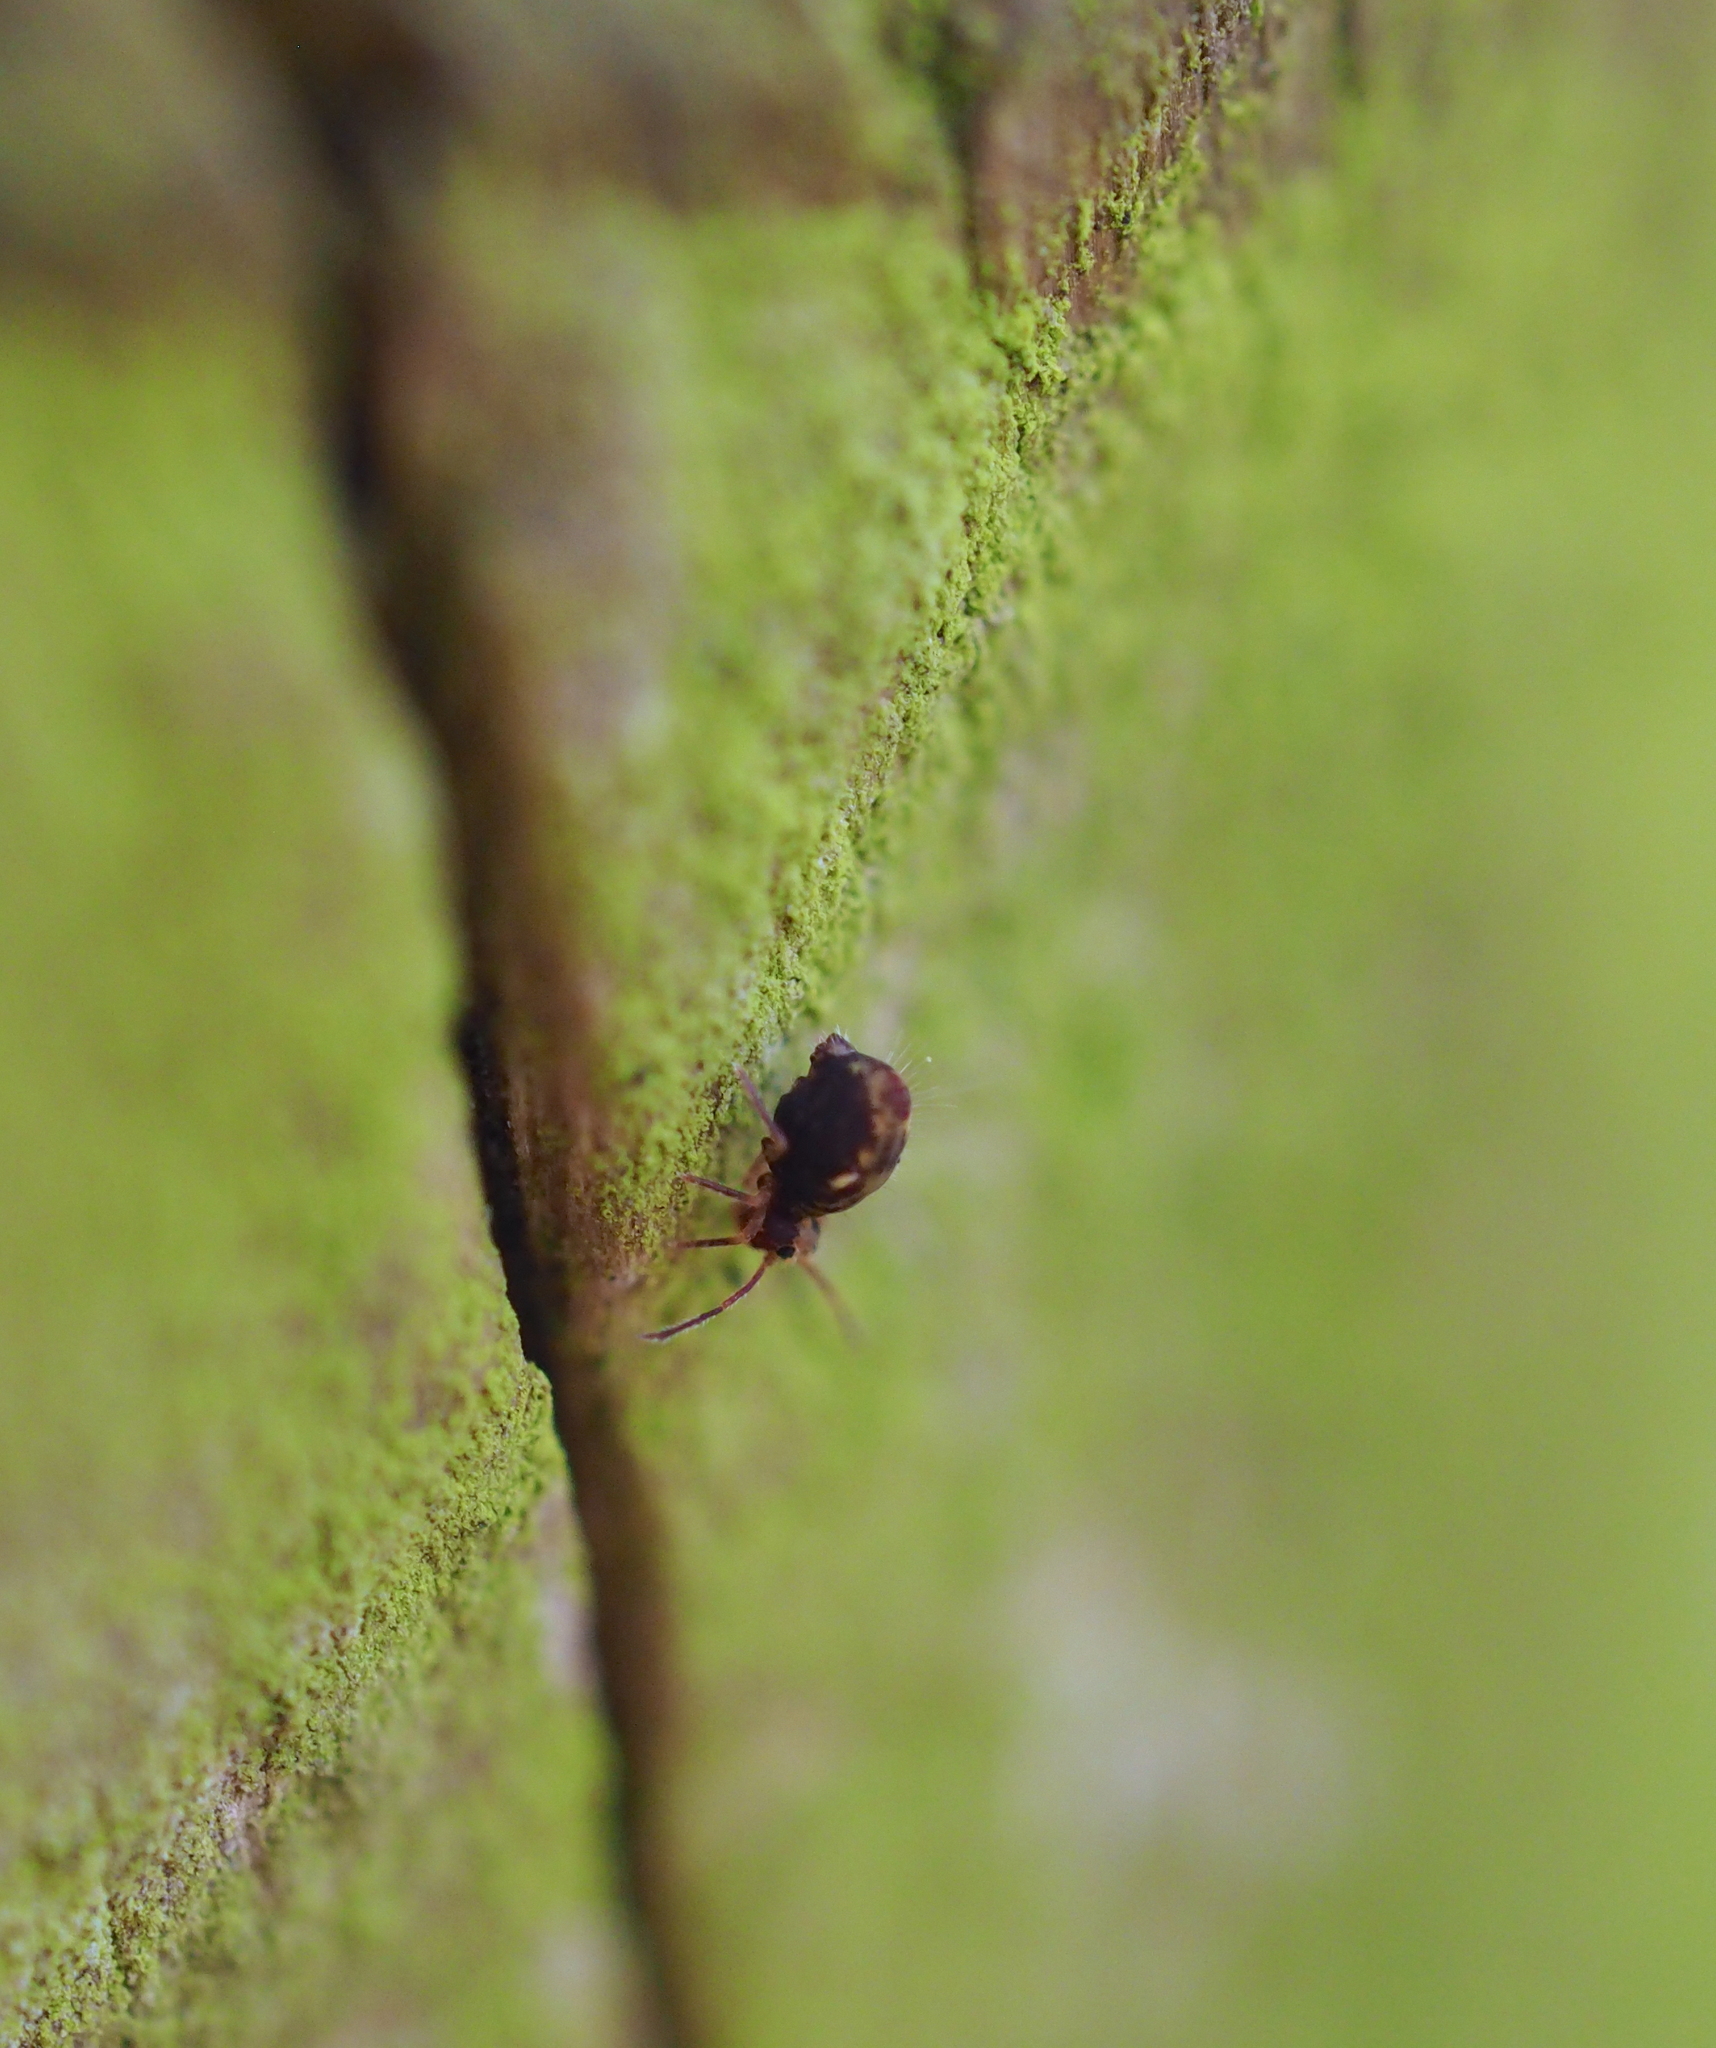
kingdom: Animalia
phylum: Arthropoda
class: Collembola
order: Symphypleona
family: Dicyrtomidae
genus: Dicyrtomina
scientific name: Dicyrtomina saundersi
